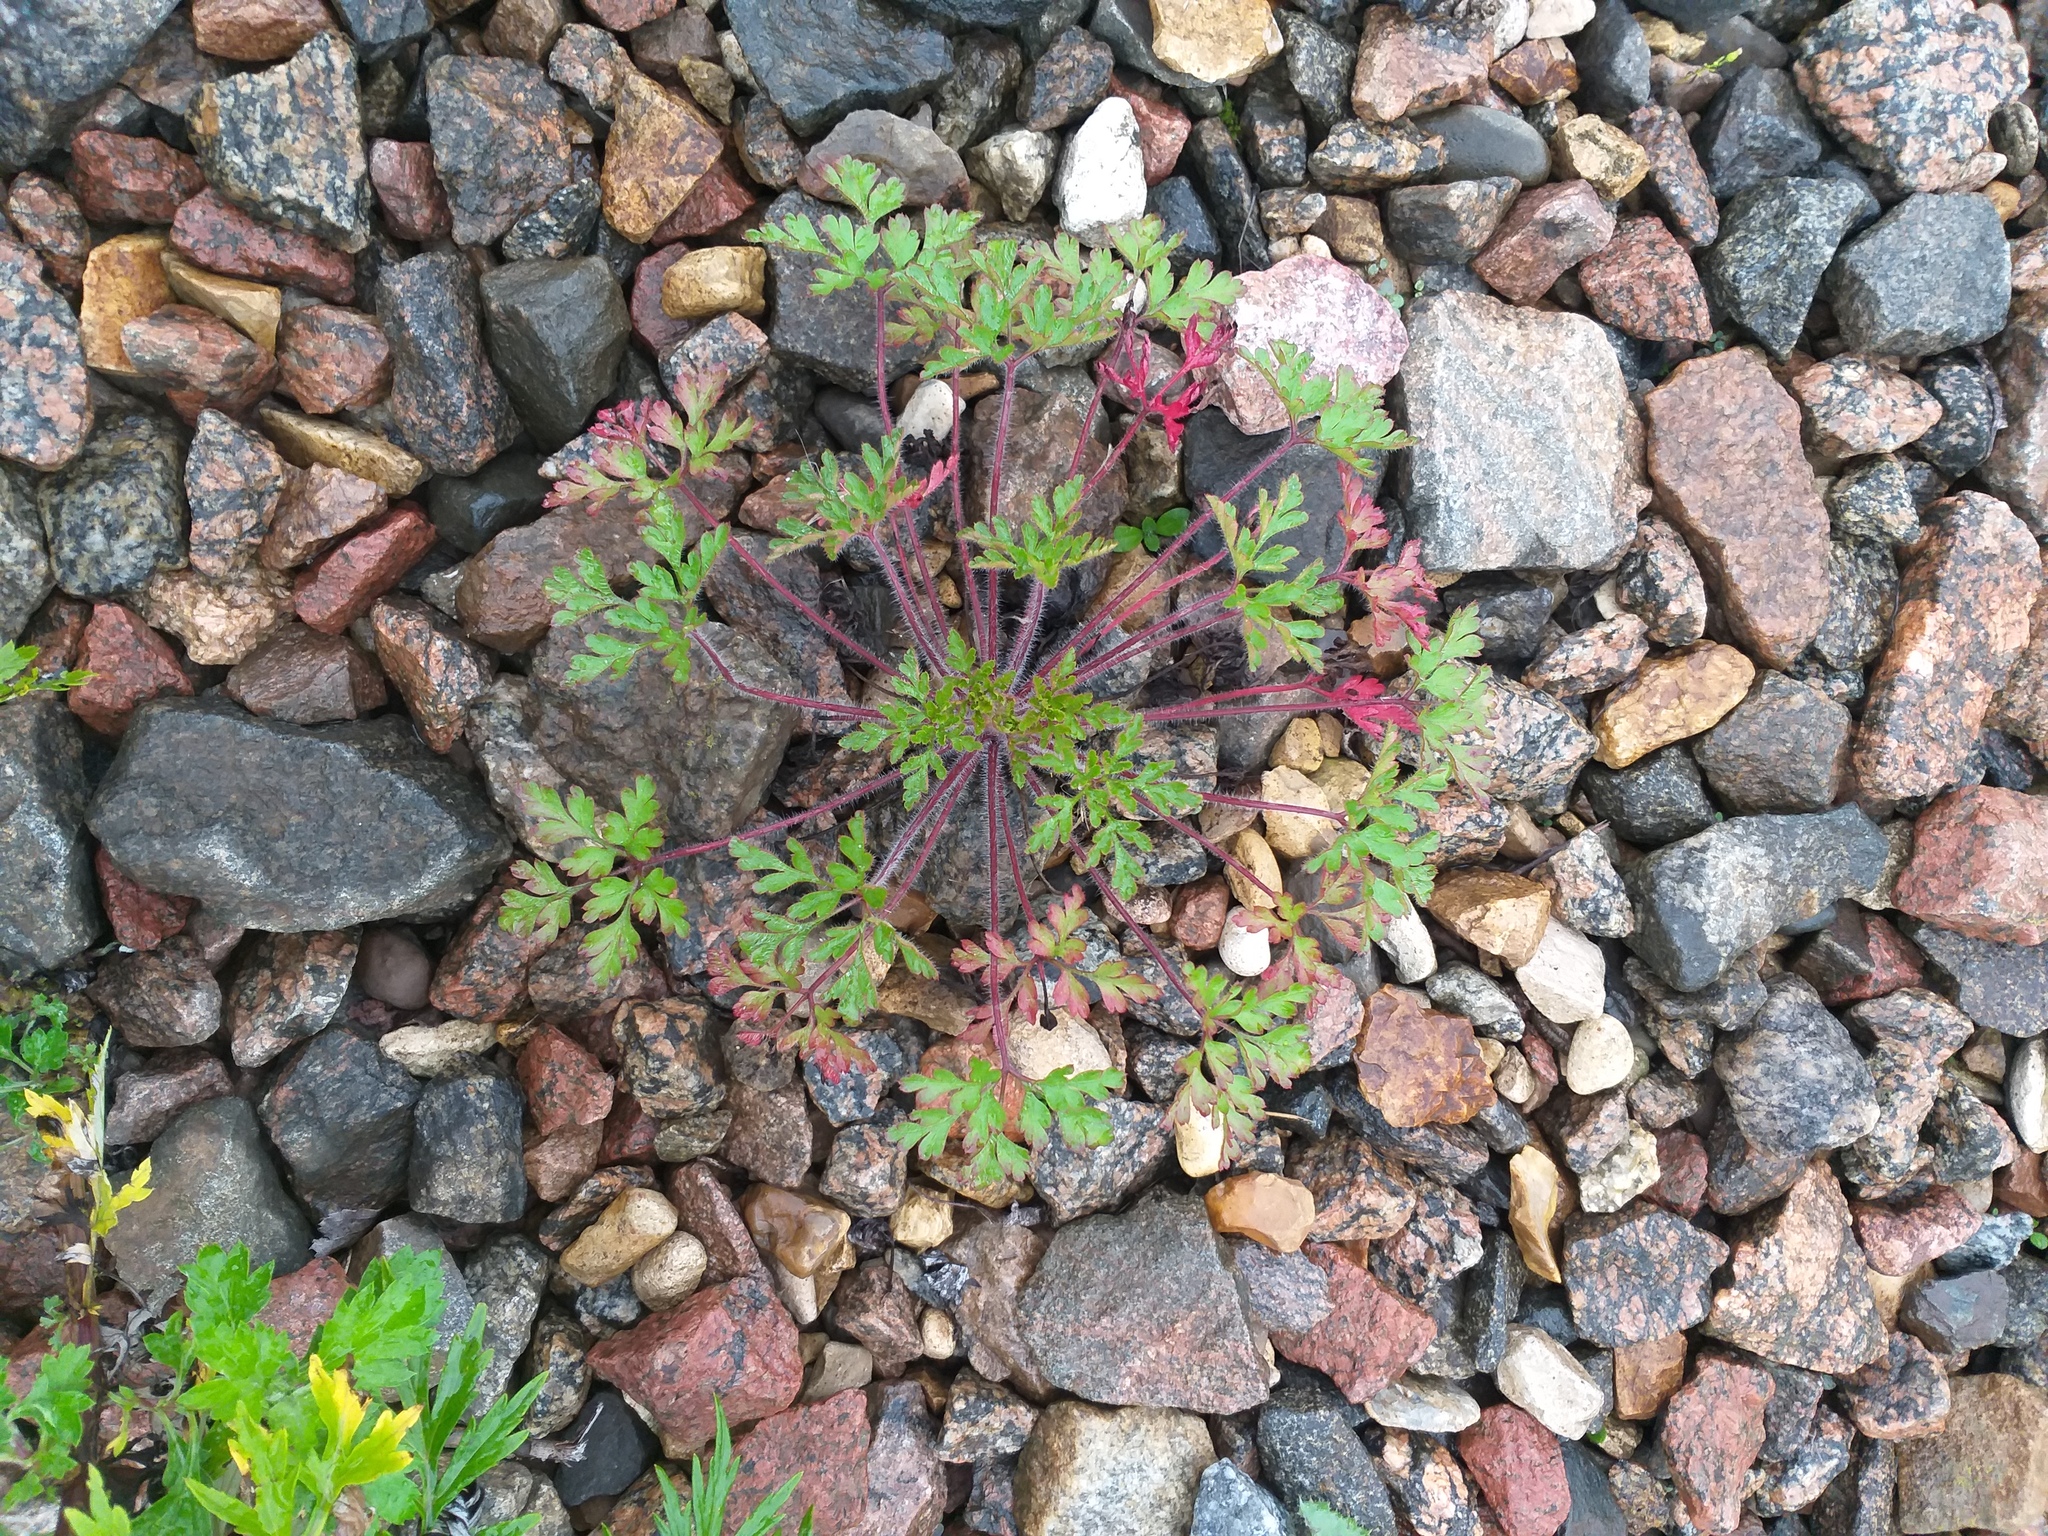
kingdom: Plantae
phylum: Tracheophyta
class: Magnoliopsida
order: Geraniales
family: Geraniaceae
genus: Geranium
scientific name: Geranium robertianum
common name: Herb-robert
